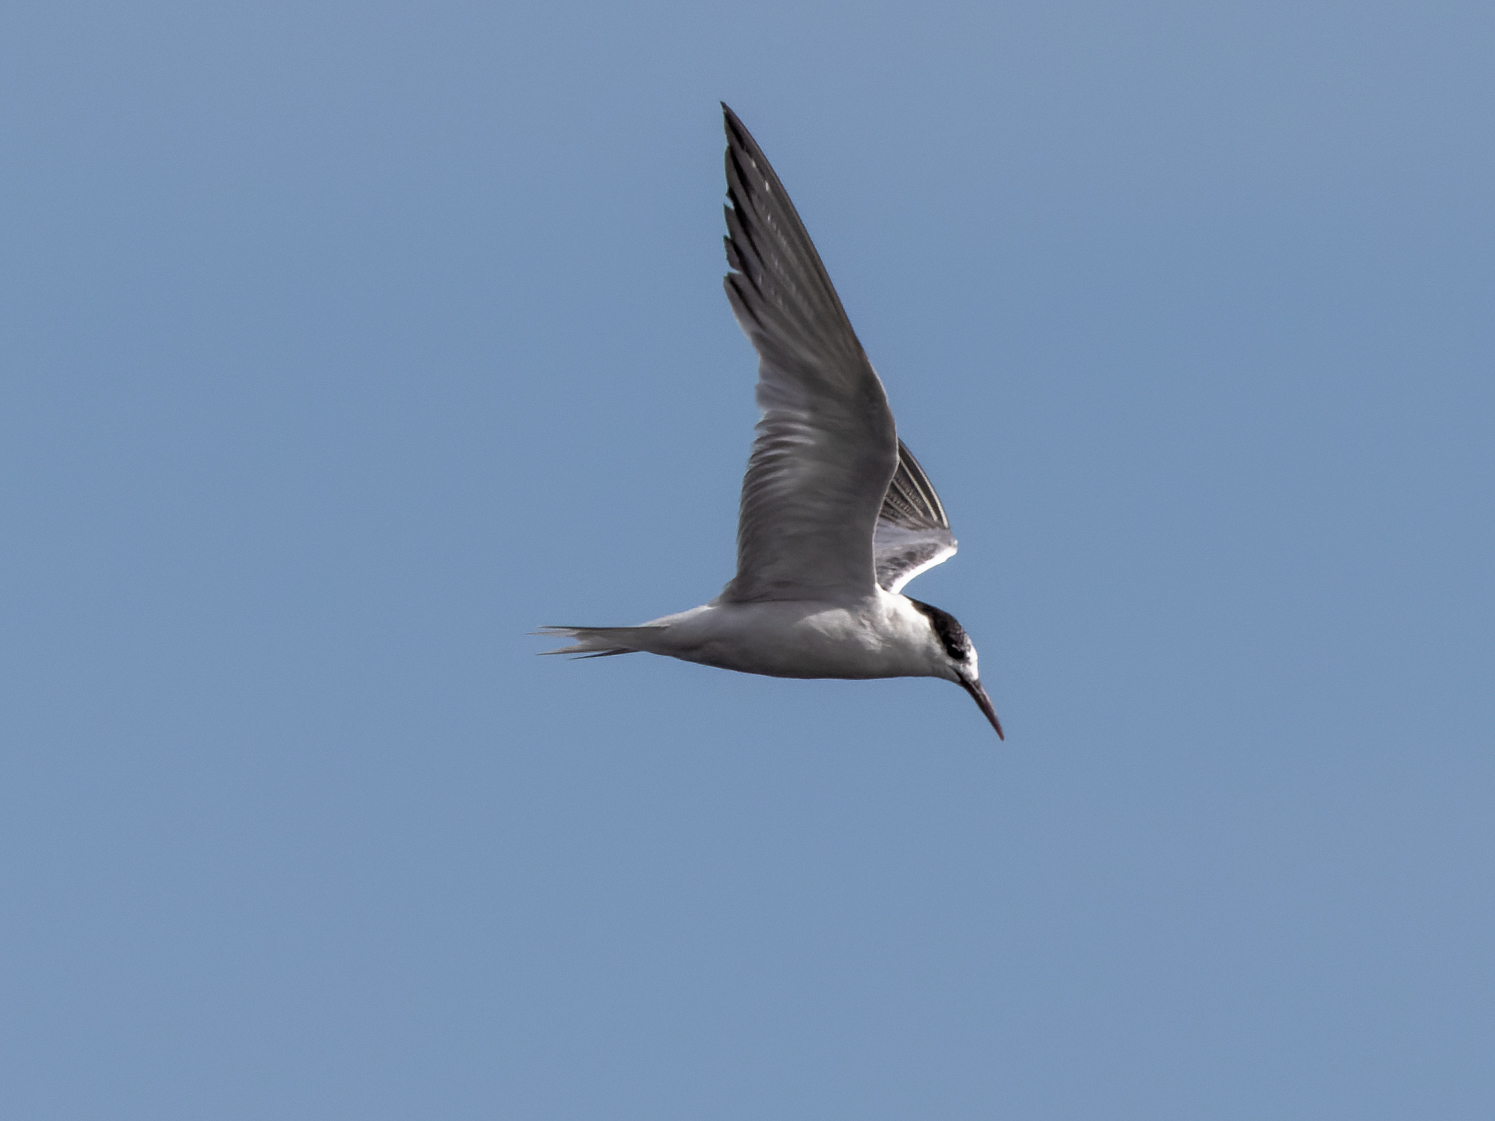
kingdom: Animalia
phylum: Chordata
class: Aves
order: Charadriiformes
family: Laridae
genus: Sterna
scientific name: Sterna hirundo
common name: Common tern
